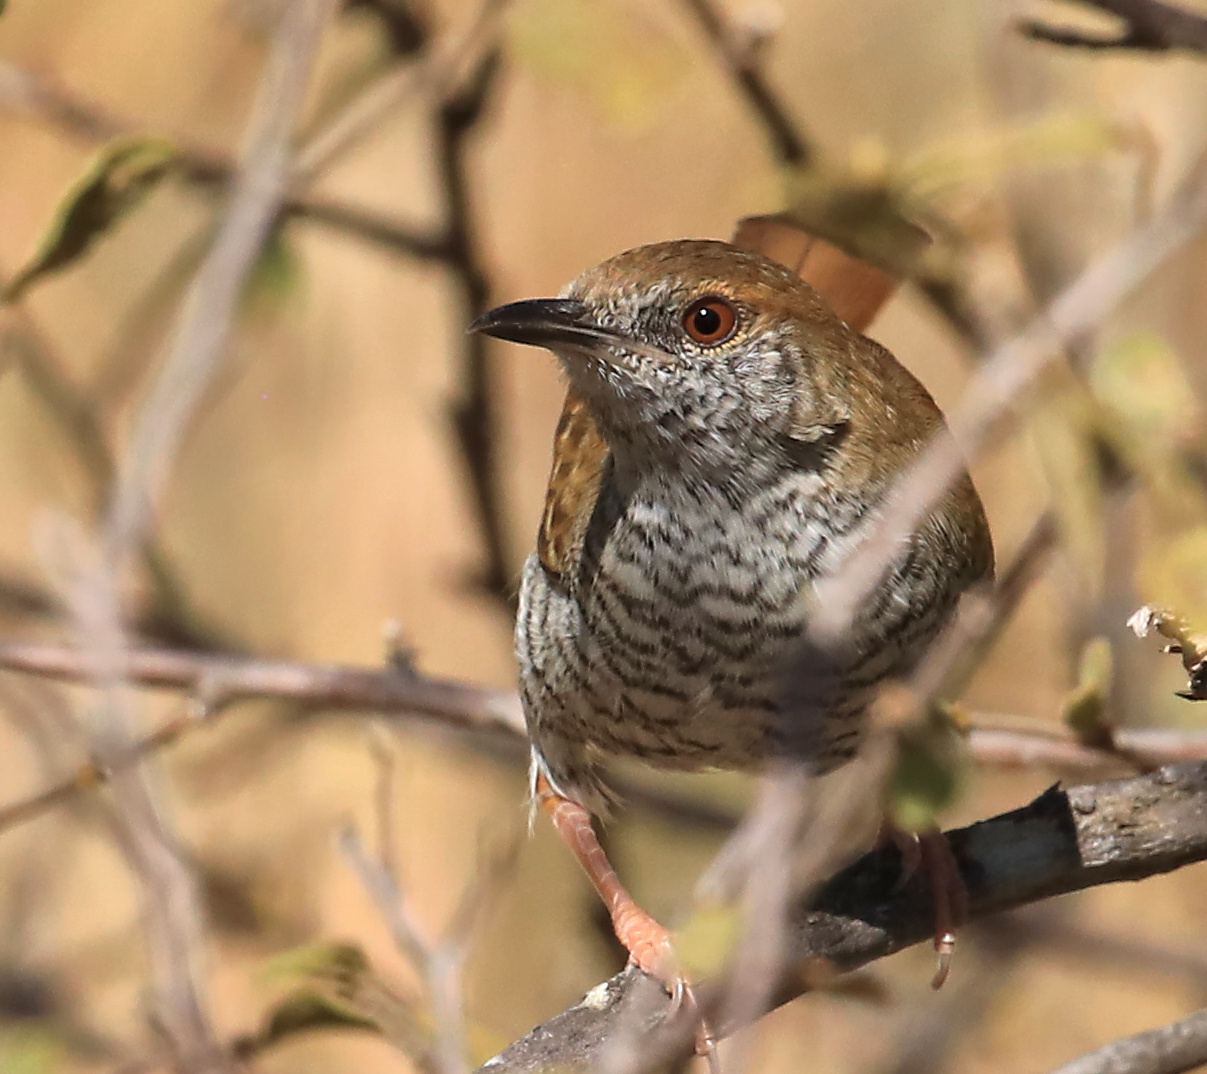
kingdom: Animalia
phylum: Chordata
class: Aves
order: Passeriformes
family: Cisticolidae
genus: Calamonastes
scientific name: Calamonastes stierlingi
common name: Stierling's wren-warbler
